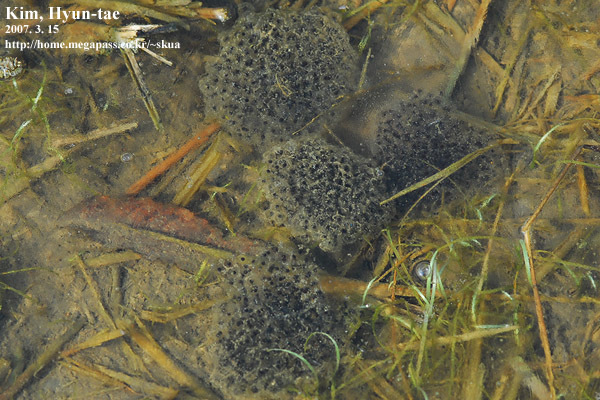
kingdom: Animalia
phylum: Chordata
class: Amphibia
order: Anura
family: Ranidae
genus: Rana
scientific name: Rana coreana
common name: Korean brown frog
